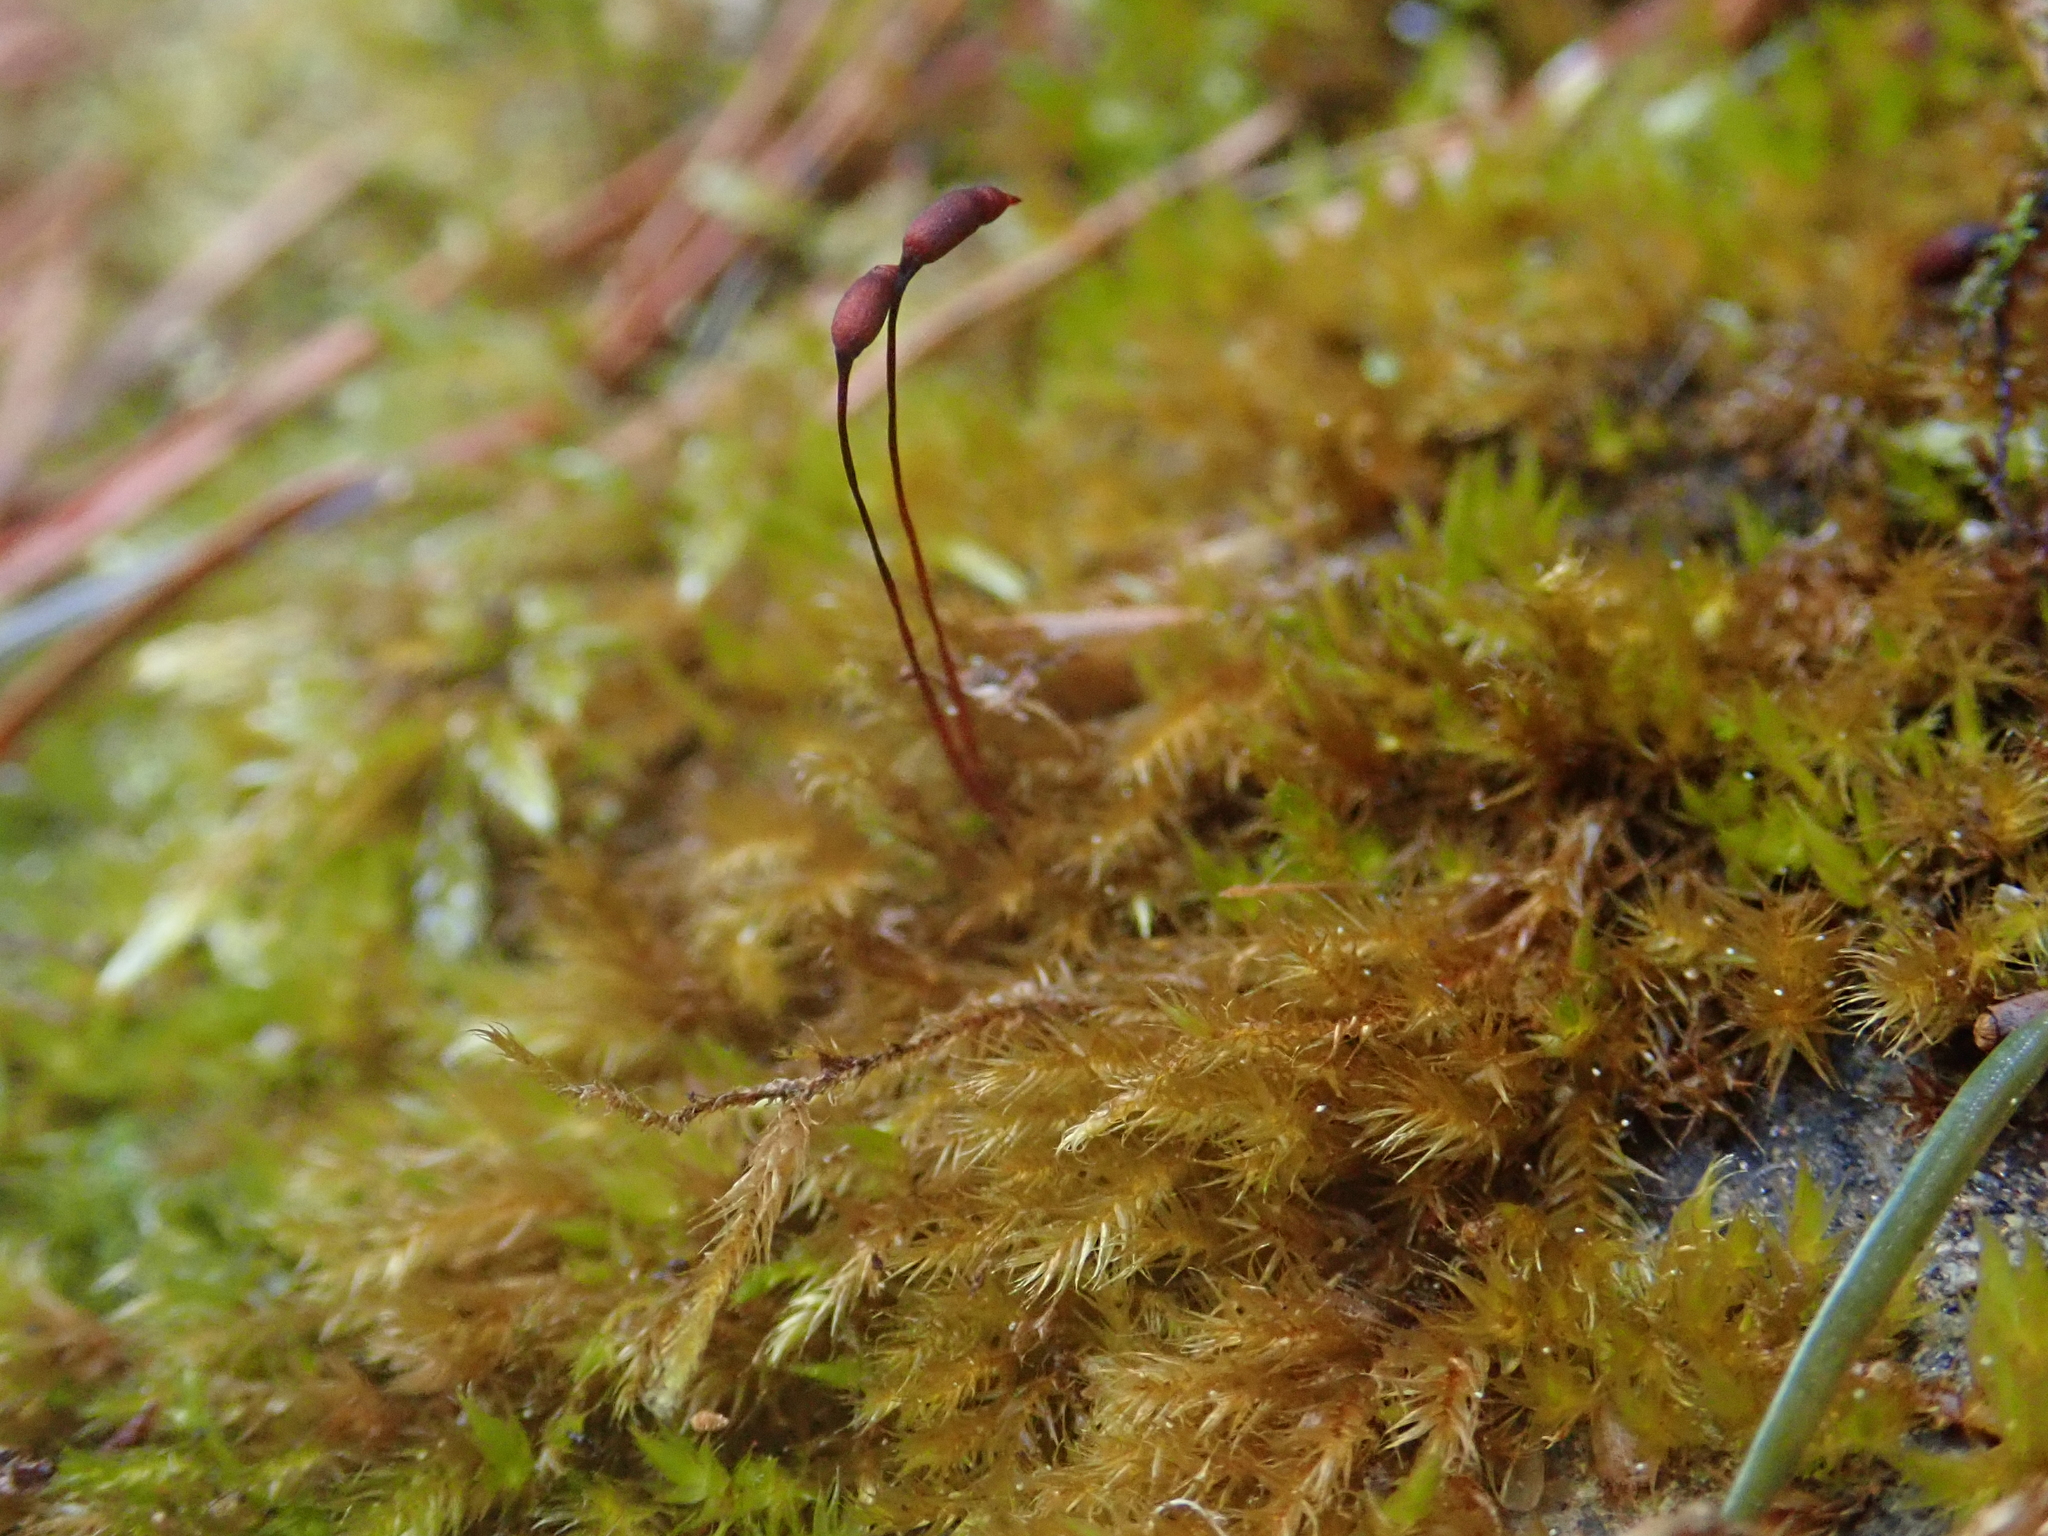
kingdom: Plantae
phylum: Bryophyta
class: Bryopsida
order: Hypnales
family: Brachytheciaceae
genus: Sciuro-hypnum
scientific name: Sciuro-hypnum populeum
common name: Matted feather-moss
